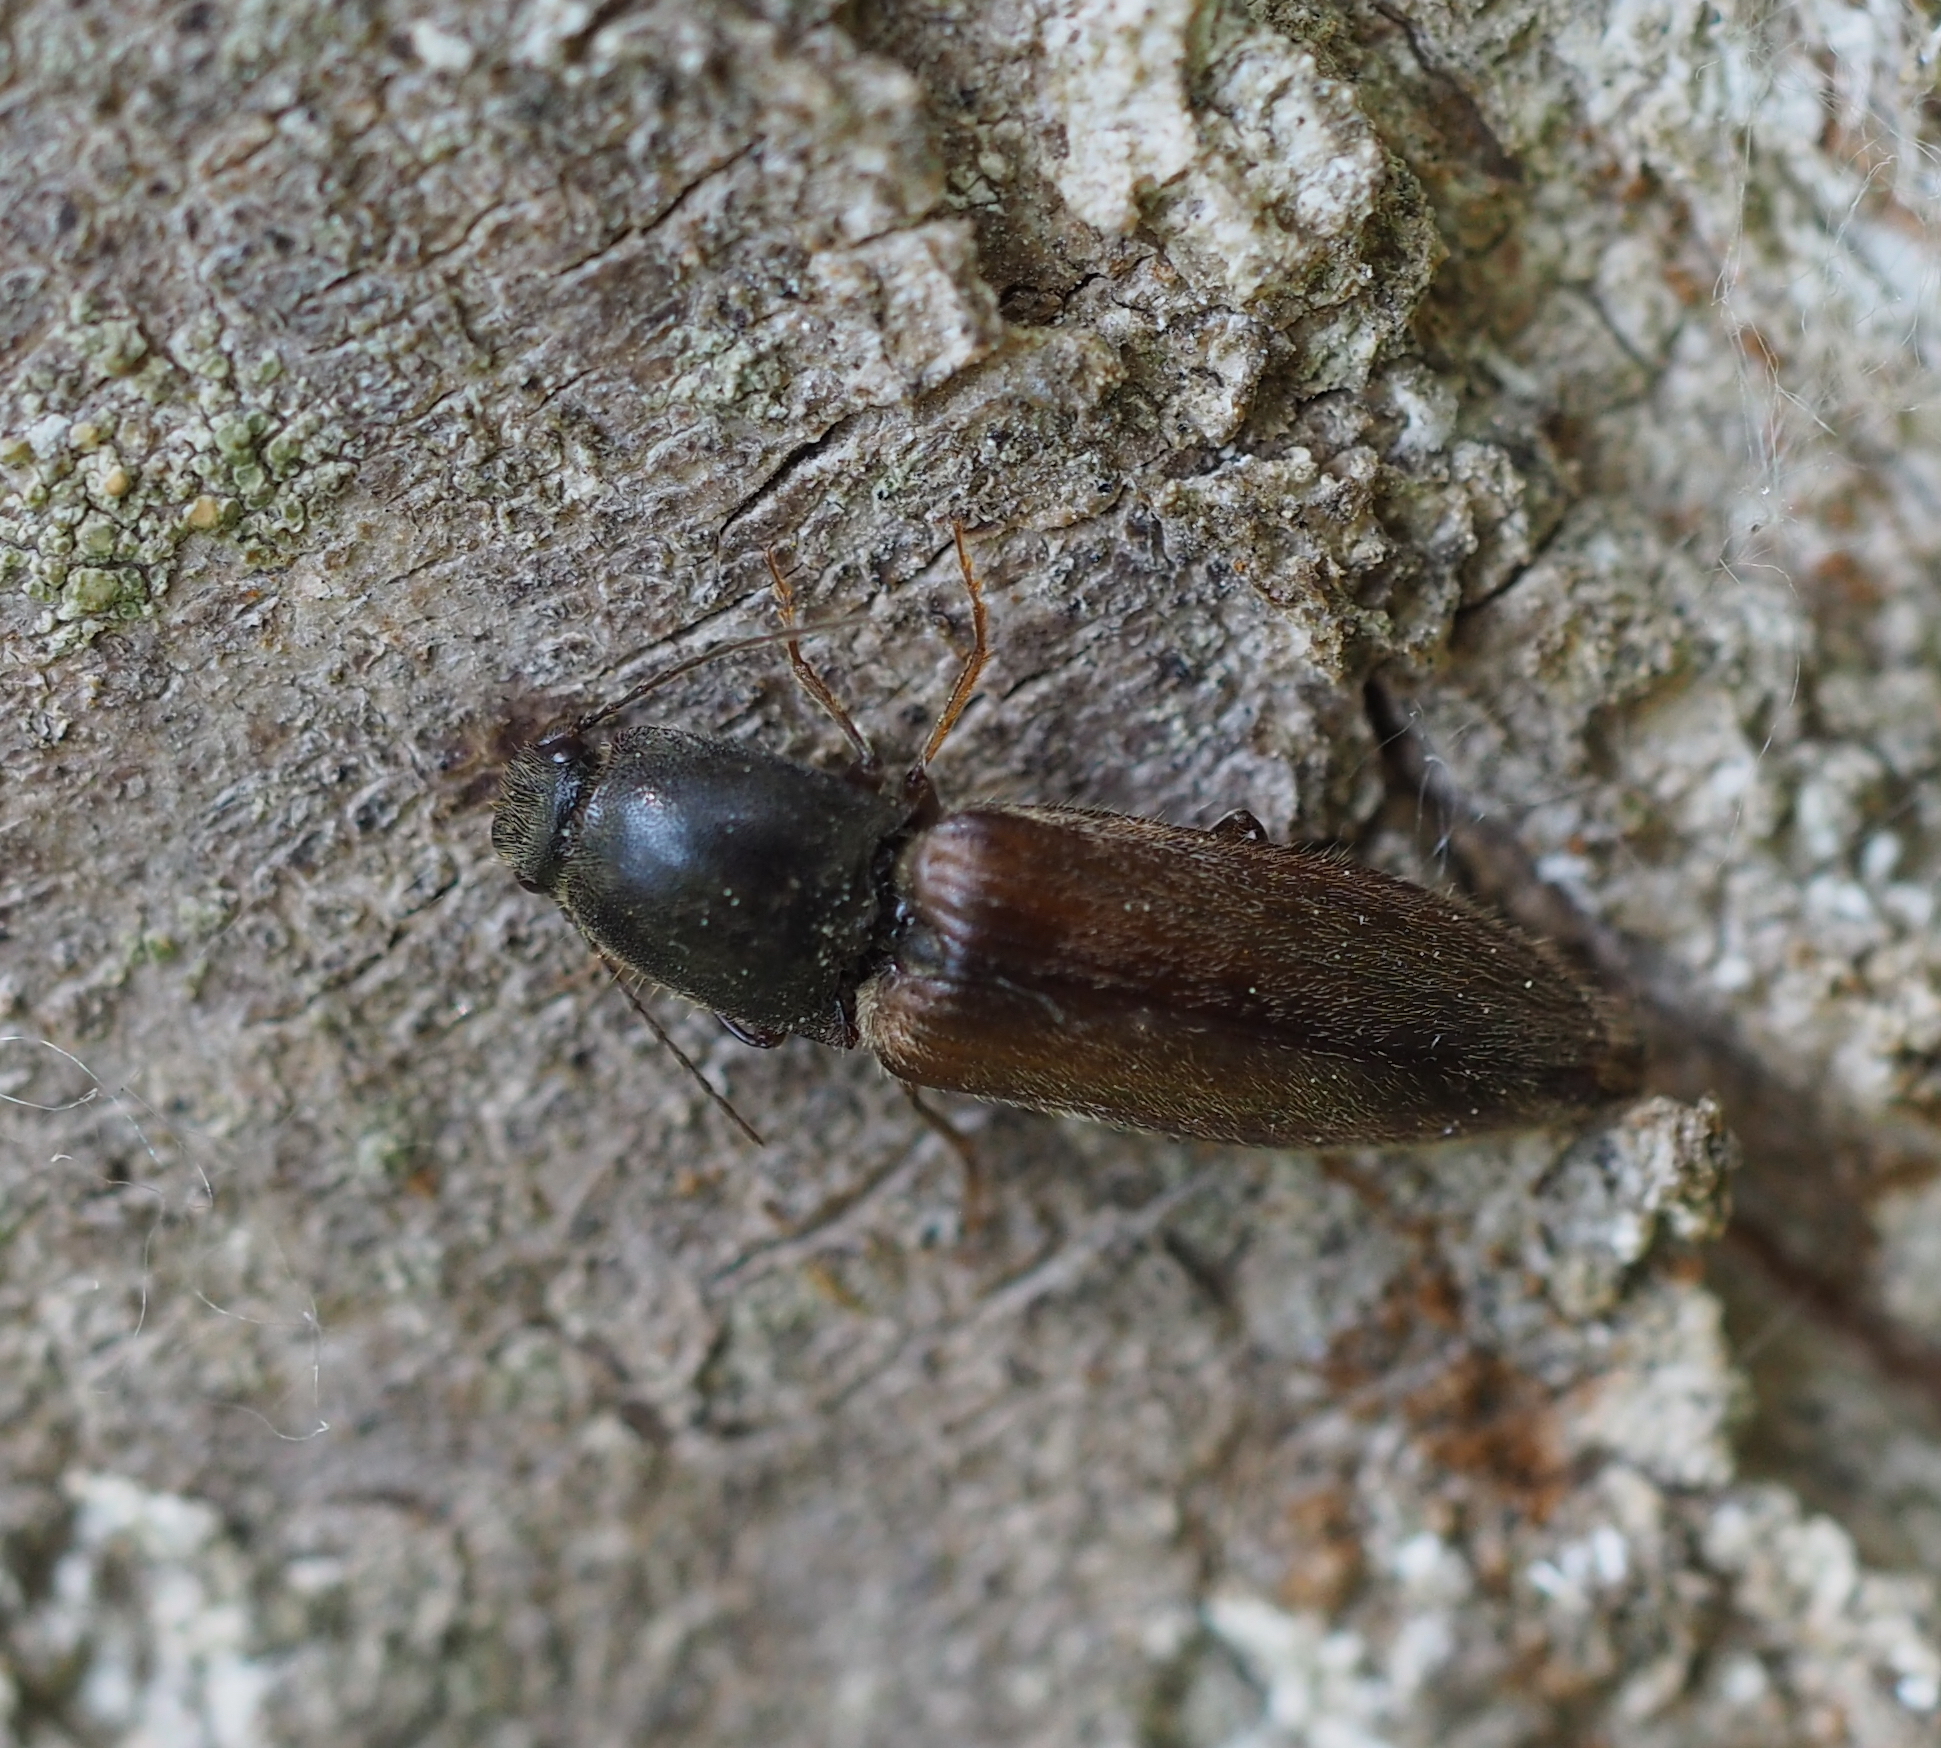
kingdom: Animalia
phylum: Arthropoda
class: Insecta
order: Coleoptera
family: Elateridae
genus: Athous
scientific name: Athous haemorrhoidalis
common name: Red-brown click beetle
